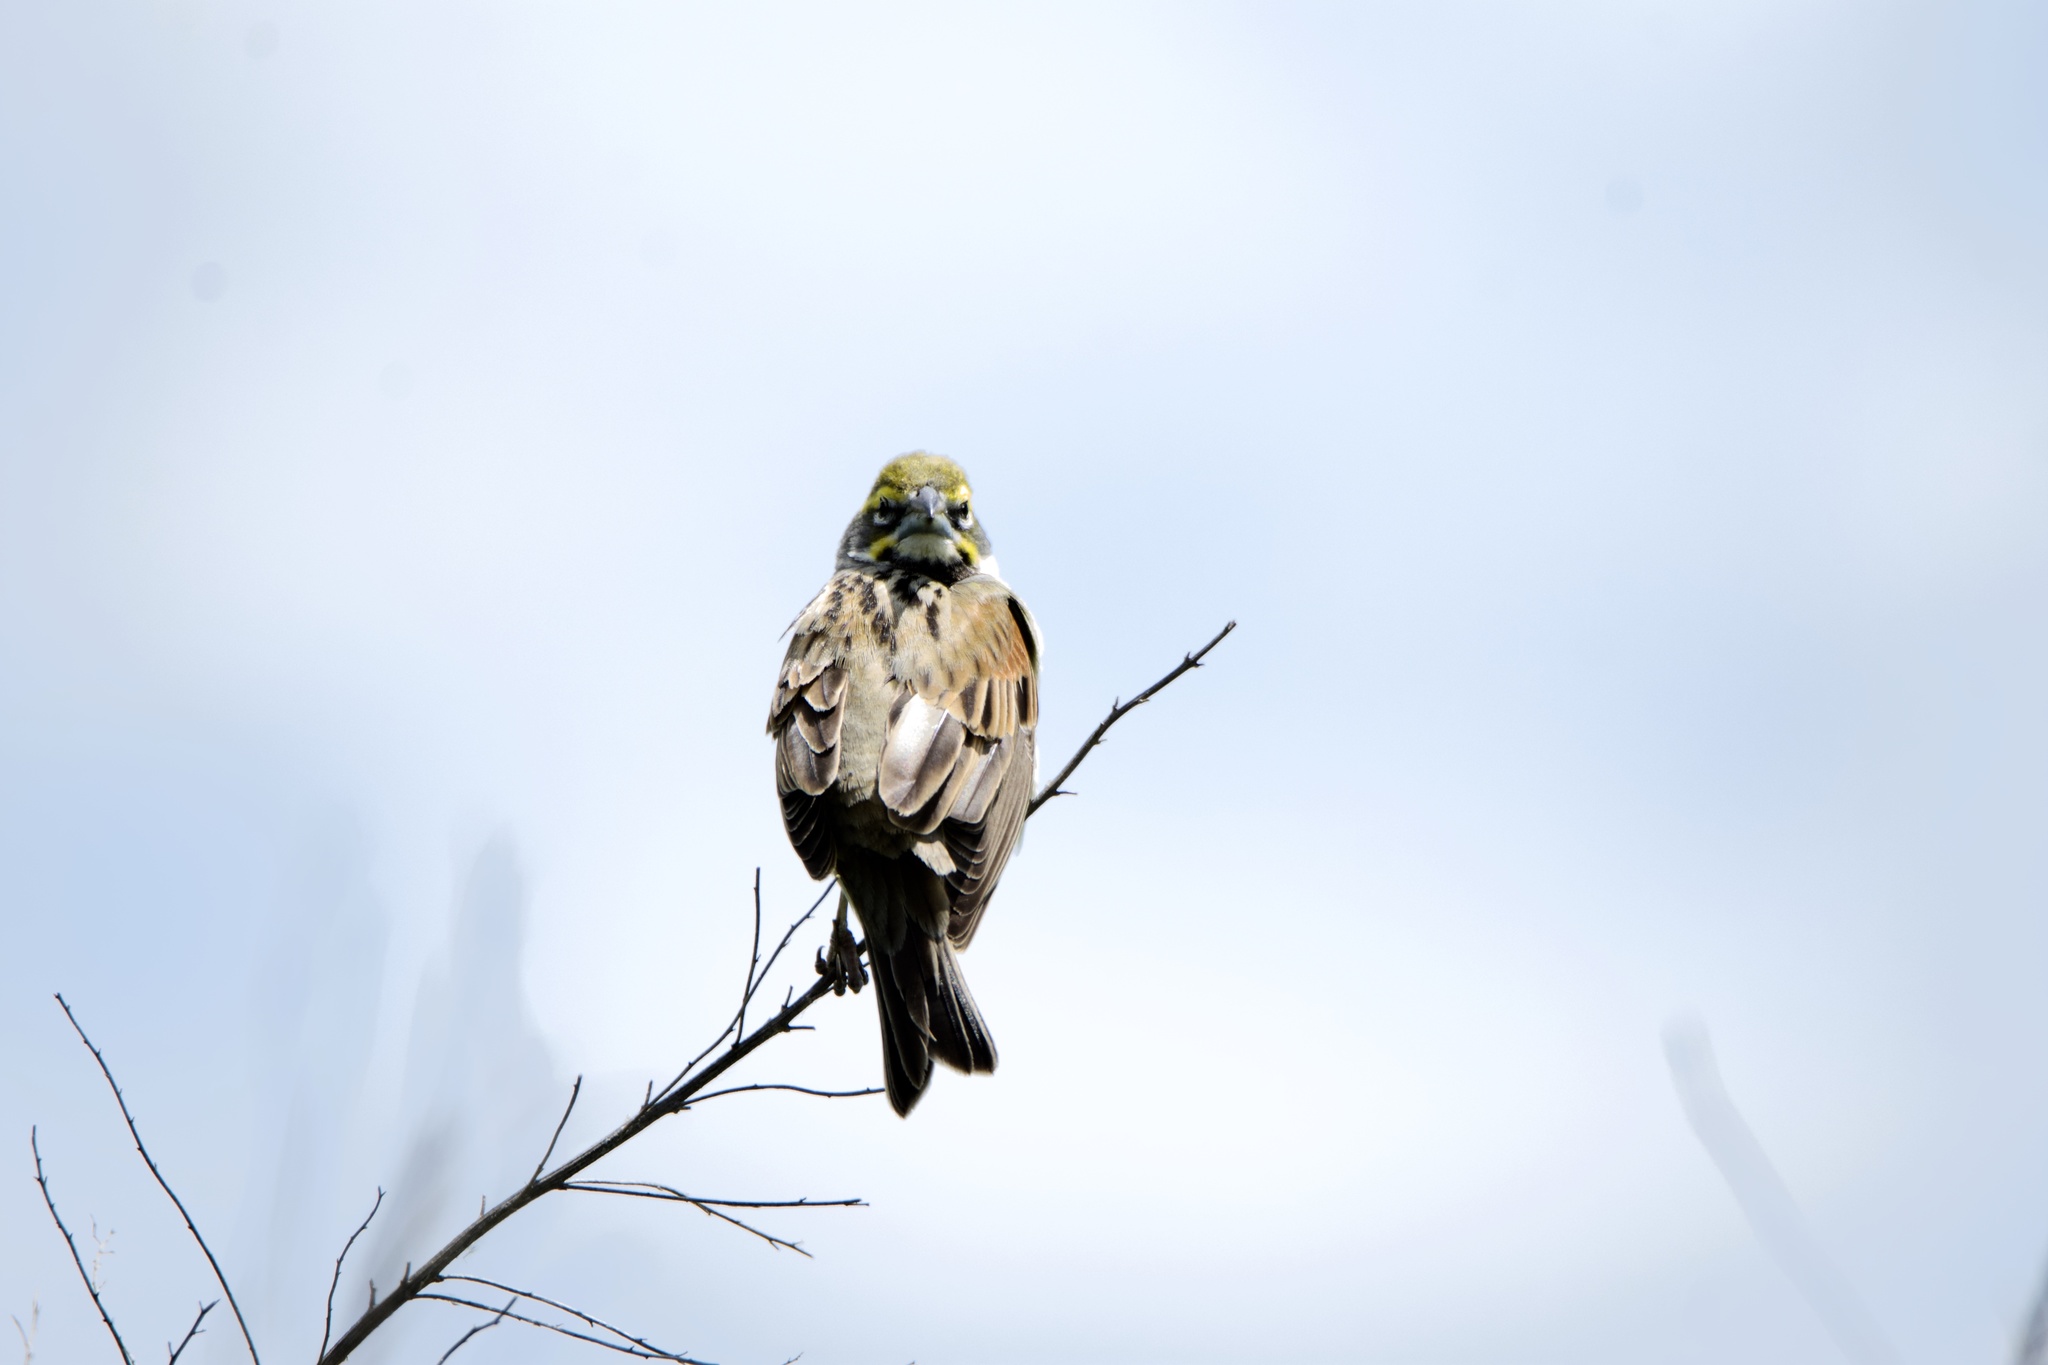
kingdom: Animalia
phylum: Chordata
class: Aves
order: Passeriformes
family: Cardinalidae
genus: Spiza
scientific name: Spiza americana
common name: Dickcissel
